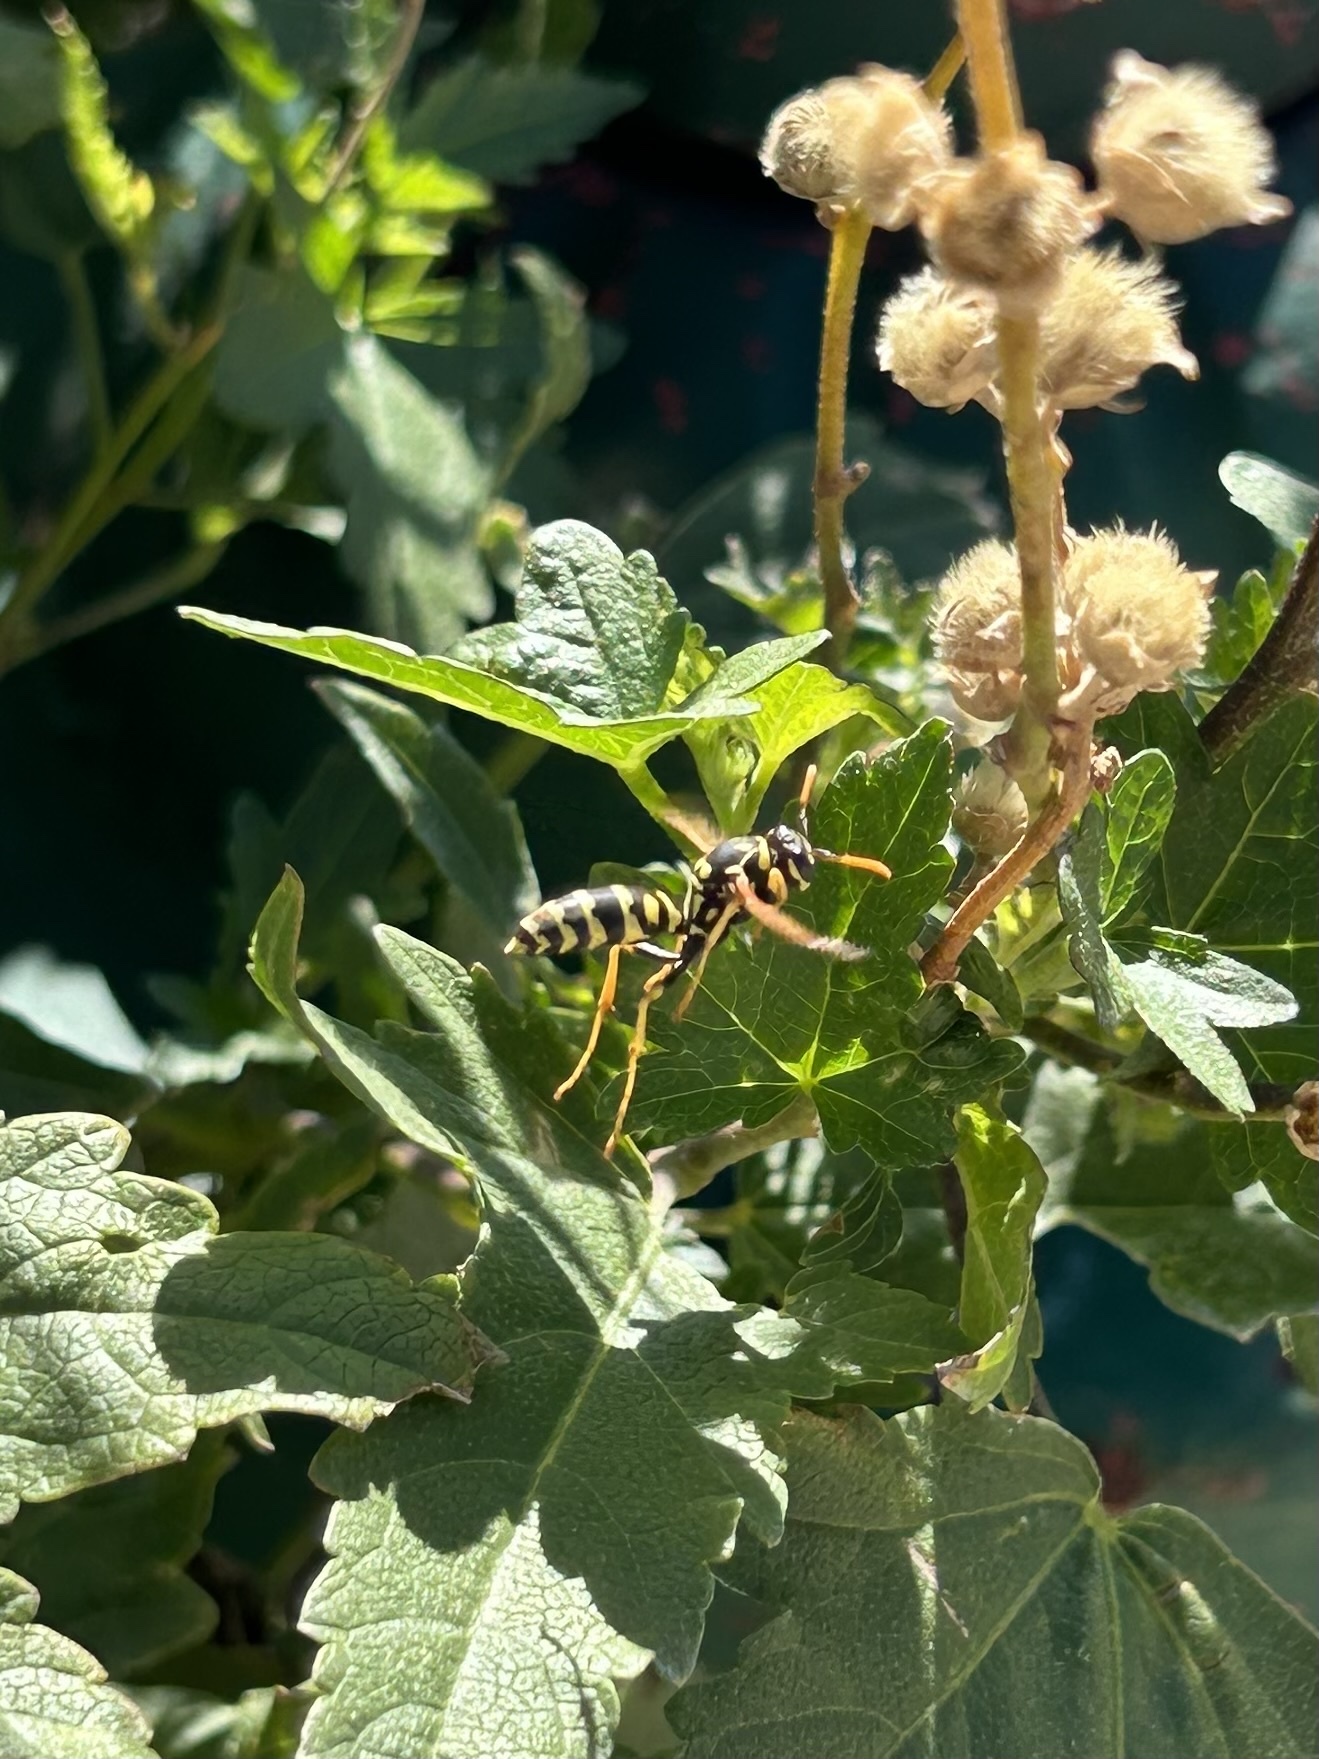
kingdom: Animalia
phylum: Arthropoda
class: Insecta
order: Hymenoptera
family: Eumenidae
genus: Polistes
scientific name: Polistes dominula
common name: Paper wasp
